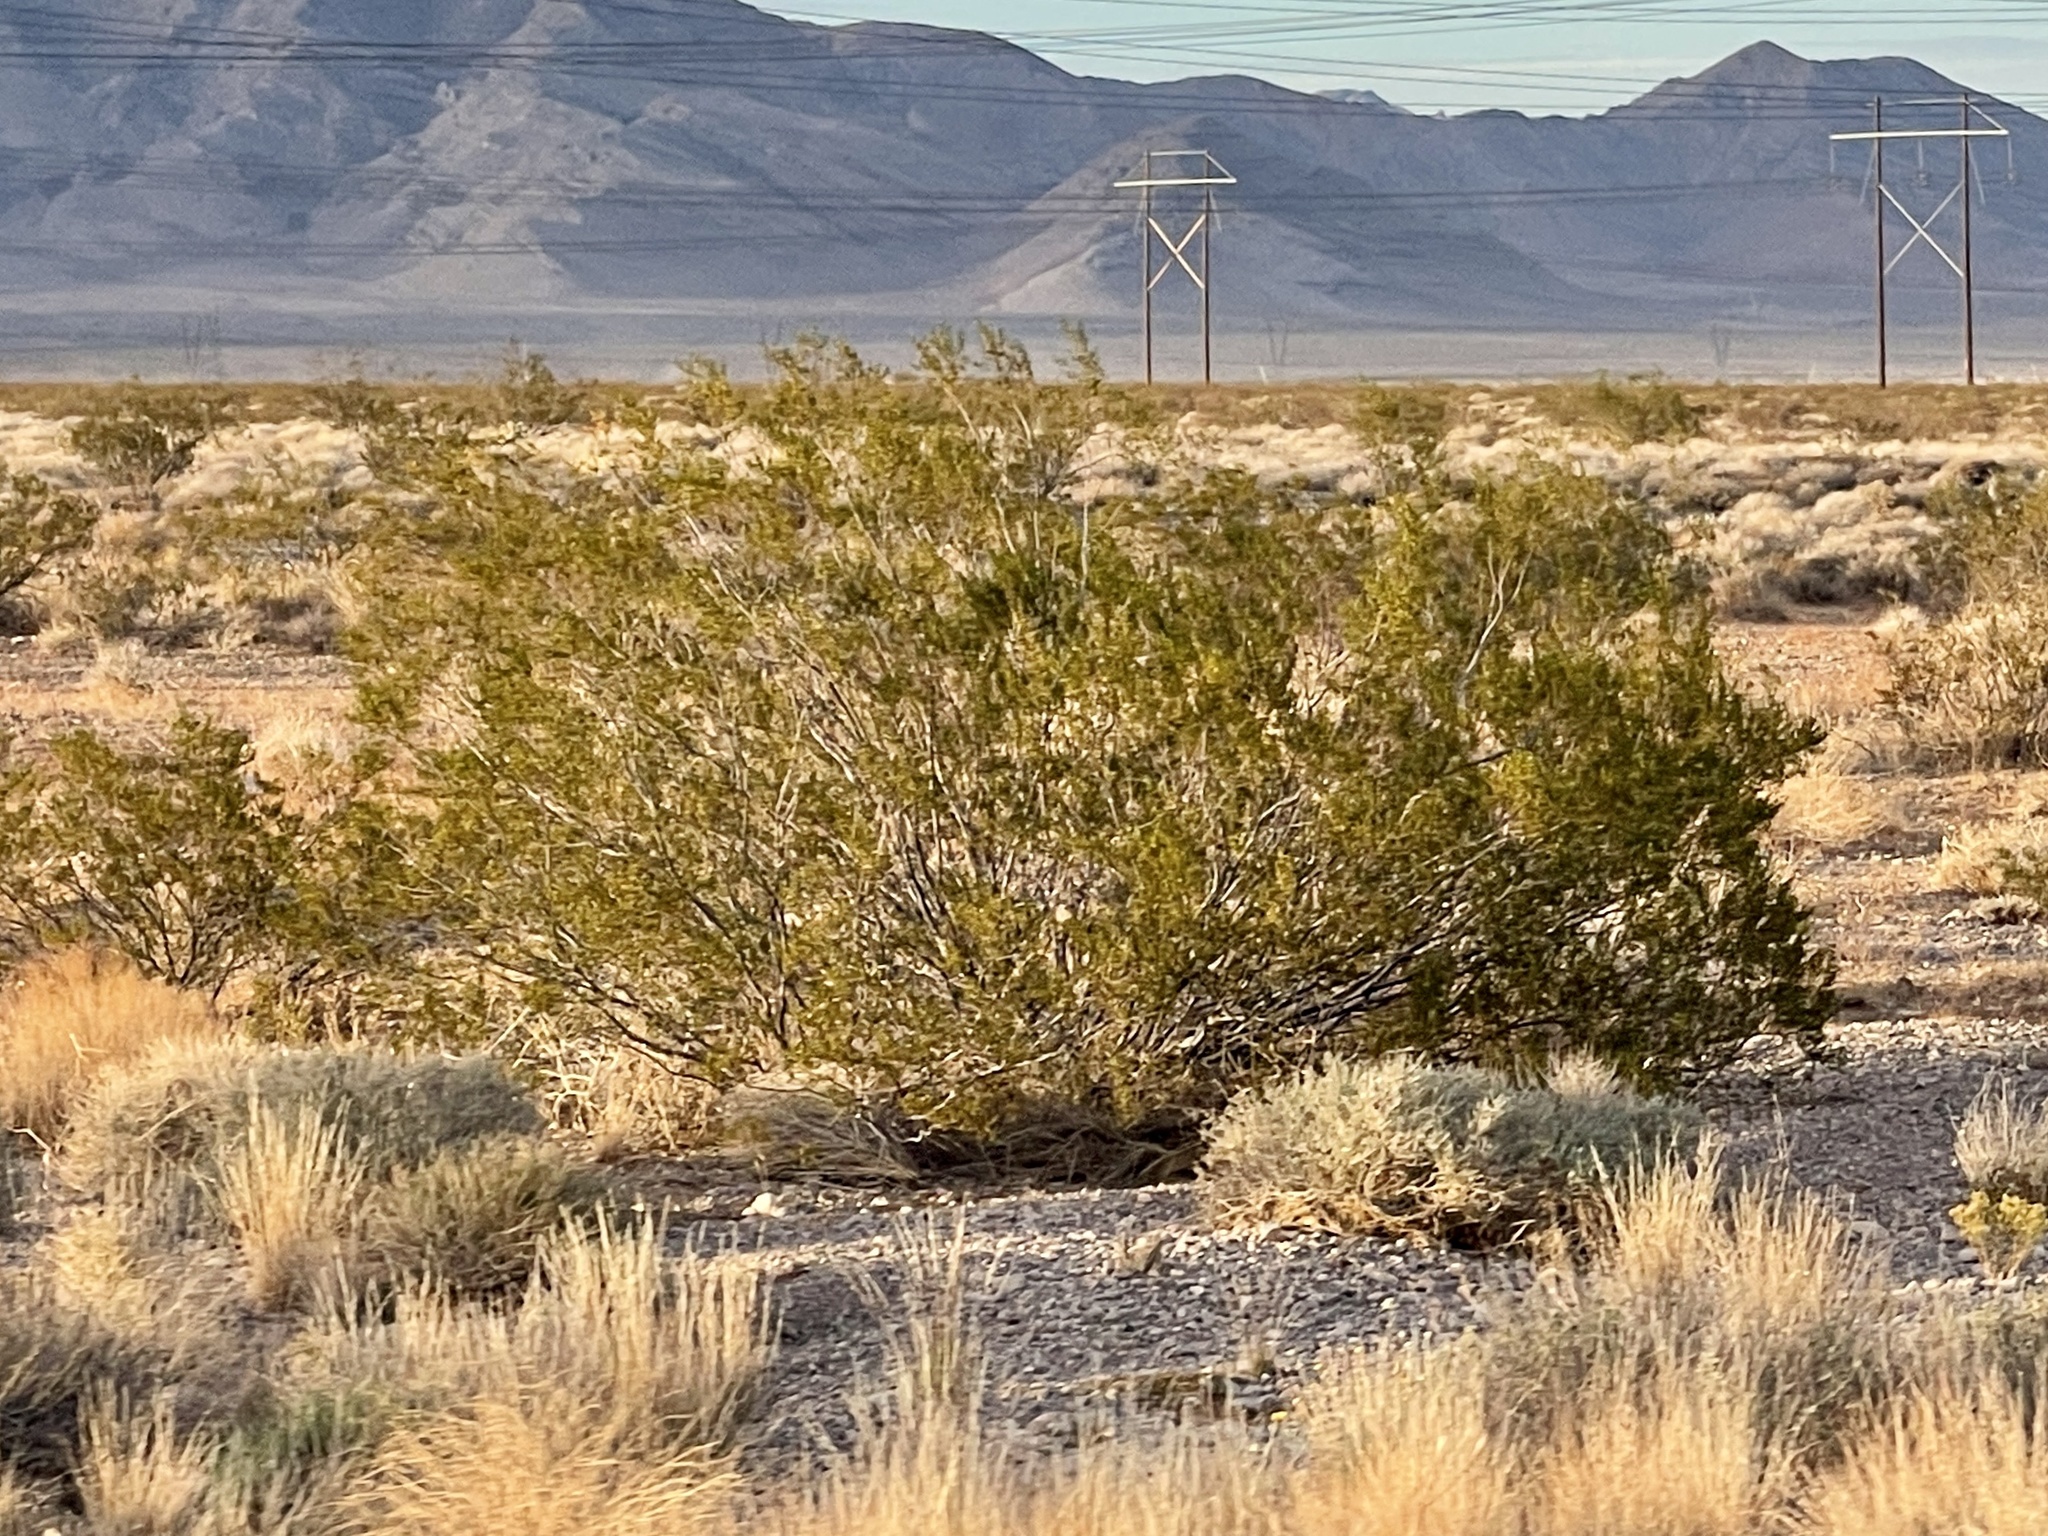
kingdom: Plantae
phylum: Tracheophyta
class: Magnoliopsida
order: Zygophyllales
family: Zygophyllaceae
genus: Larrea
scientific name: Larrea tridentata
